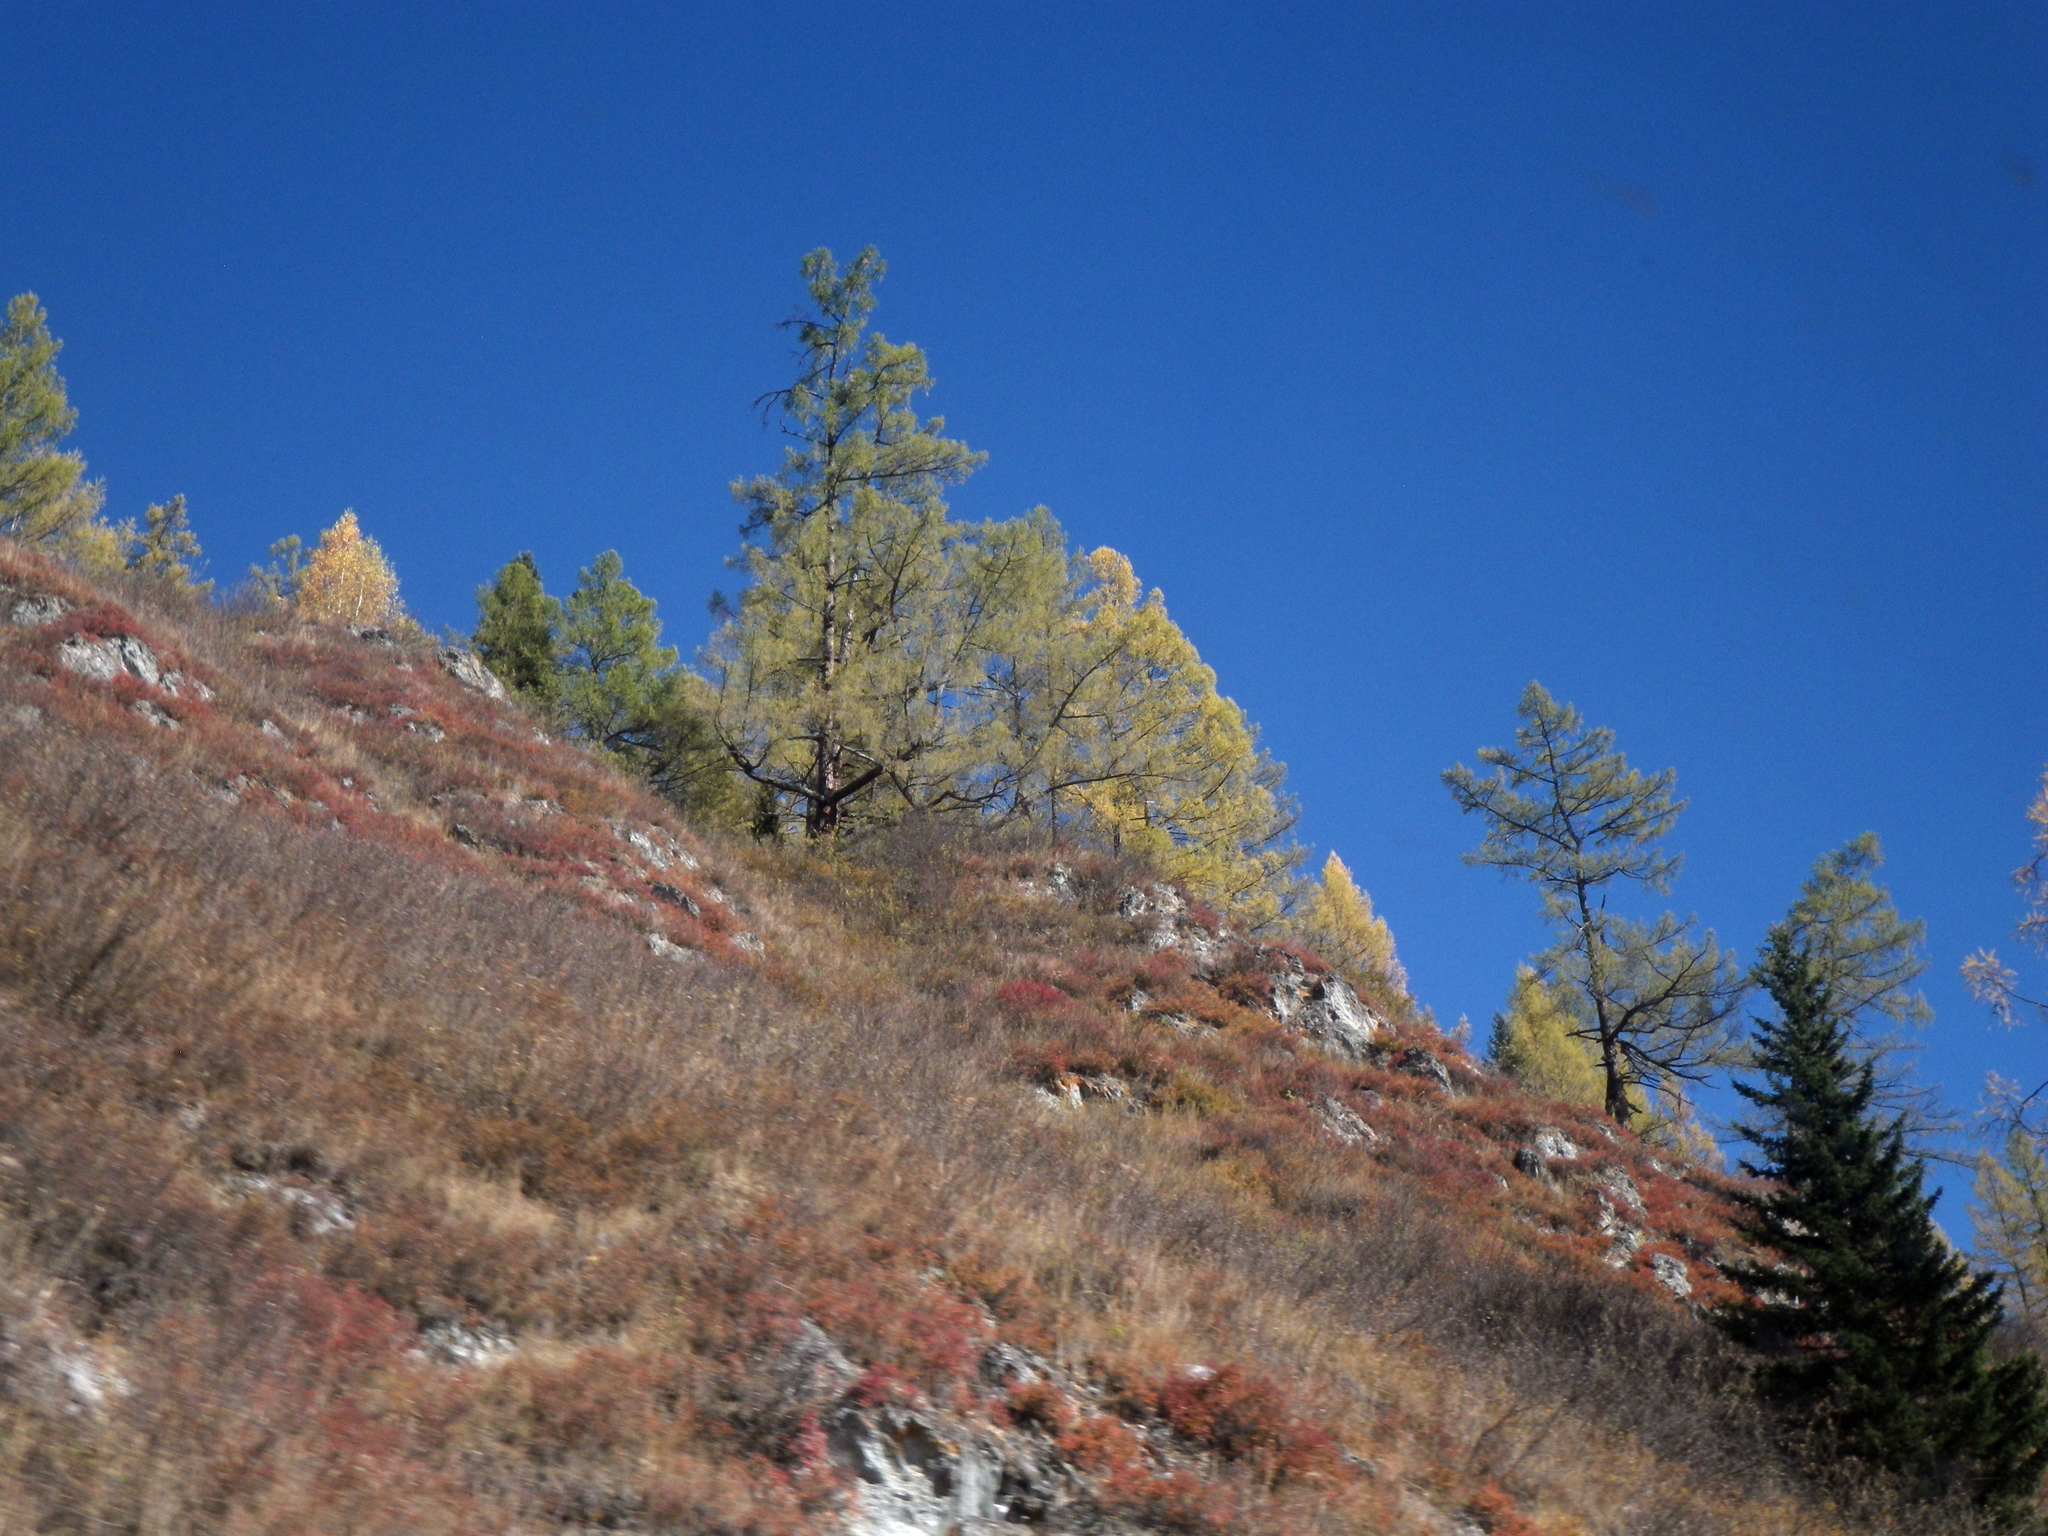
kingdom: Plantae
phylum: Tracheophyta
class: Pinopsida
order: Pinales
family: Pinaceae
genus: Picea
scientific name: Picea obovata
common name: Siberian spruce
